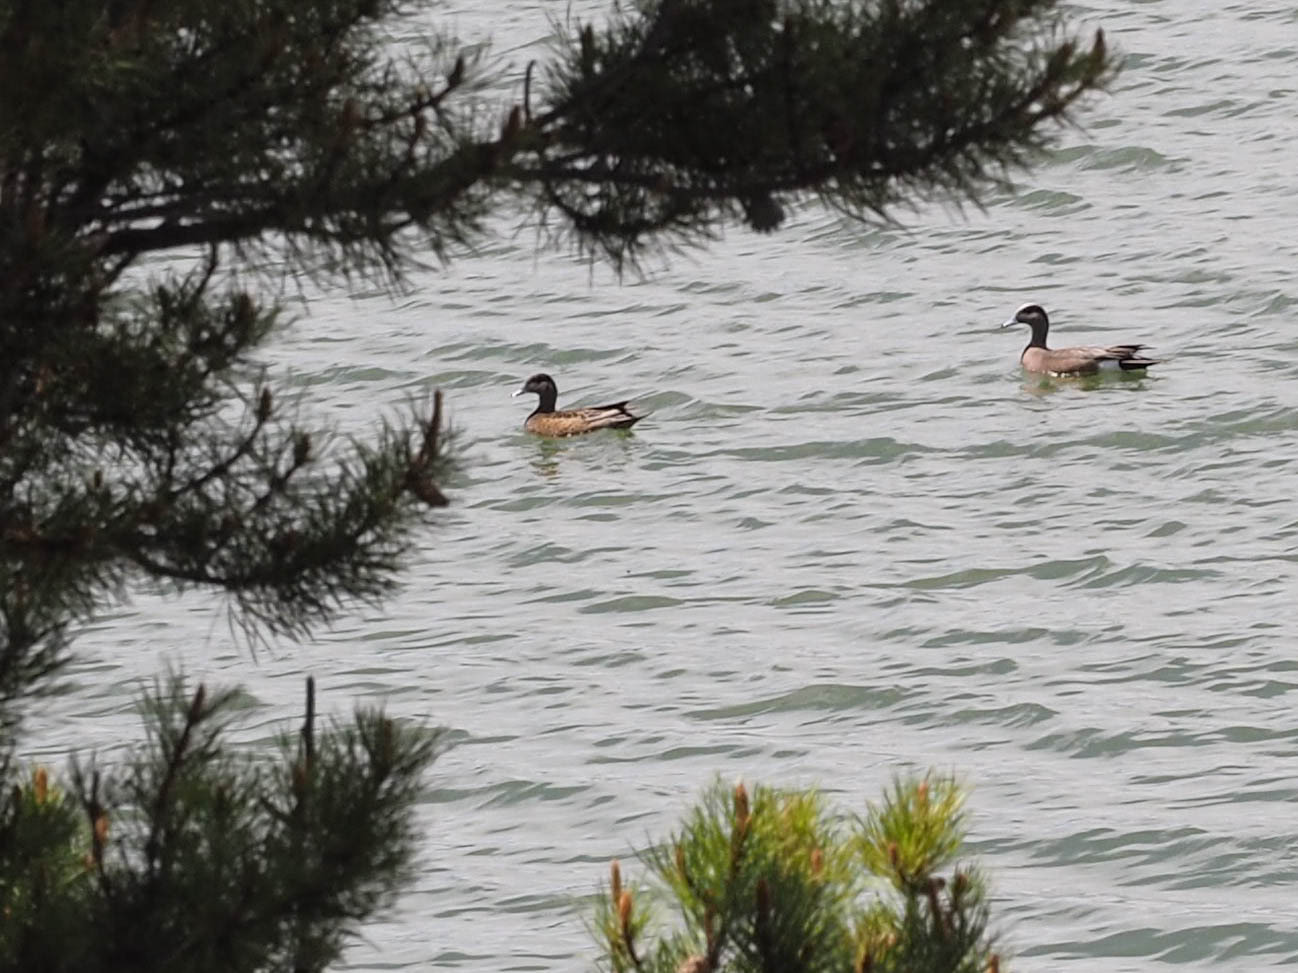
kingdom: Animalia
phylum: Chordata
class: Aves
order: Anseriformes
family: Anatidae
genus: Mareca
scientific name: Mareca americana
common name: American wigeon
